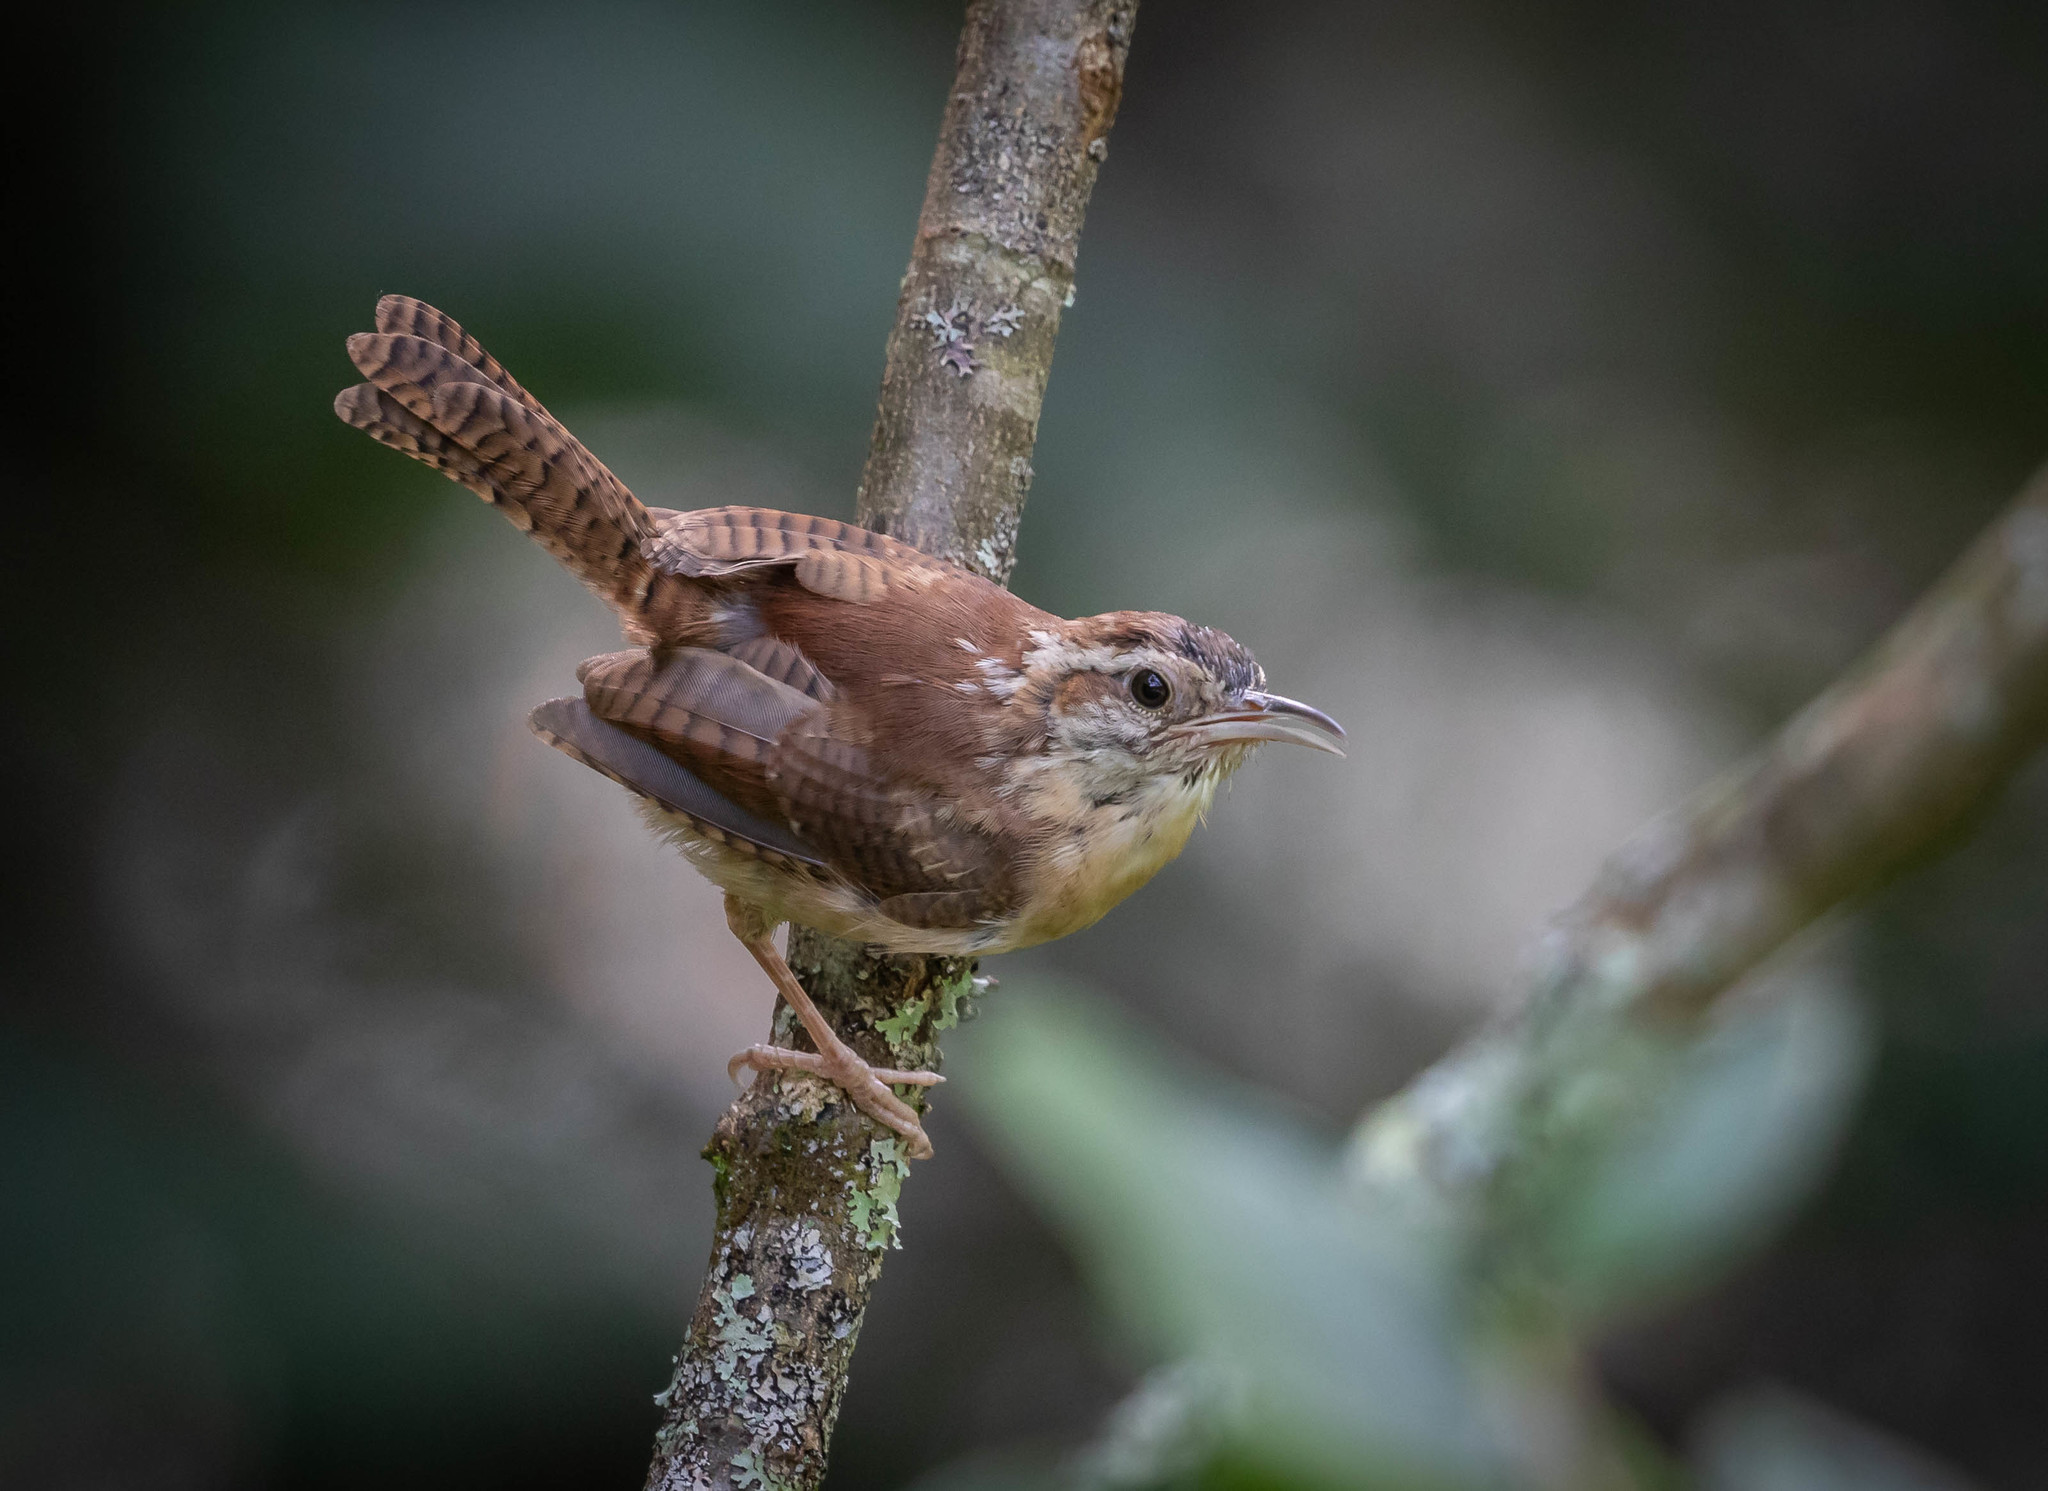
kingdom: Animalia
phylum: Chordata
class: Aves
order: Passeriformes
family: Troglodytidae
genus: Thryothorus
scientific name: Thryothorus ludovicianus
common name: Carolina wren
